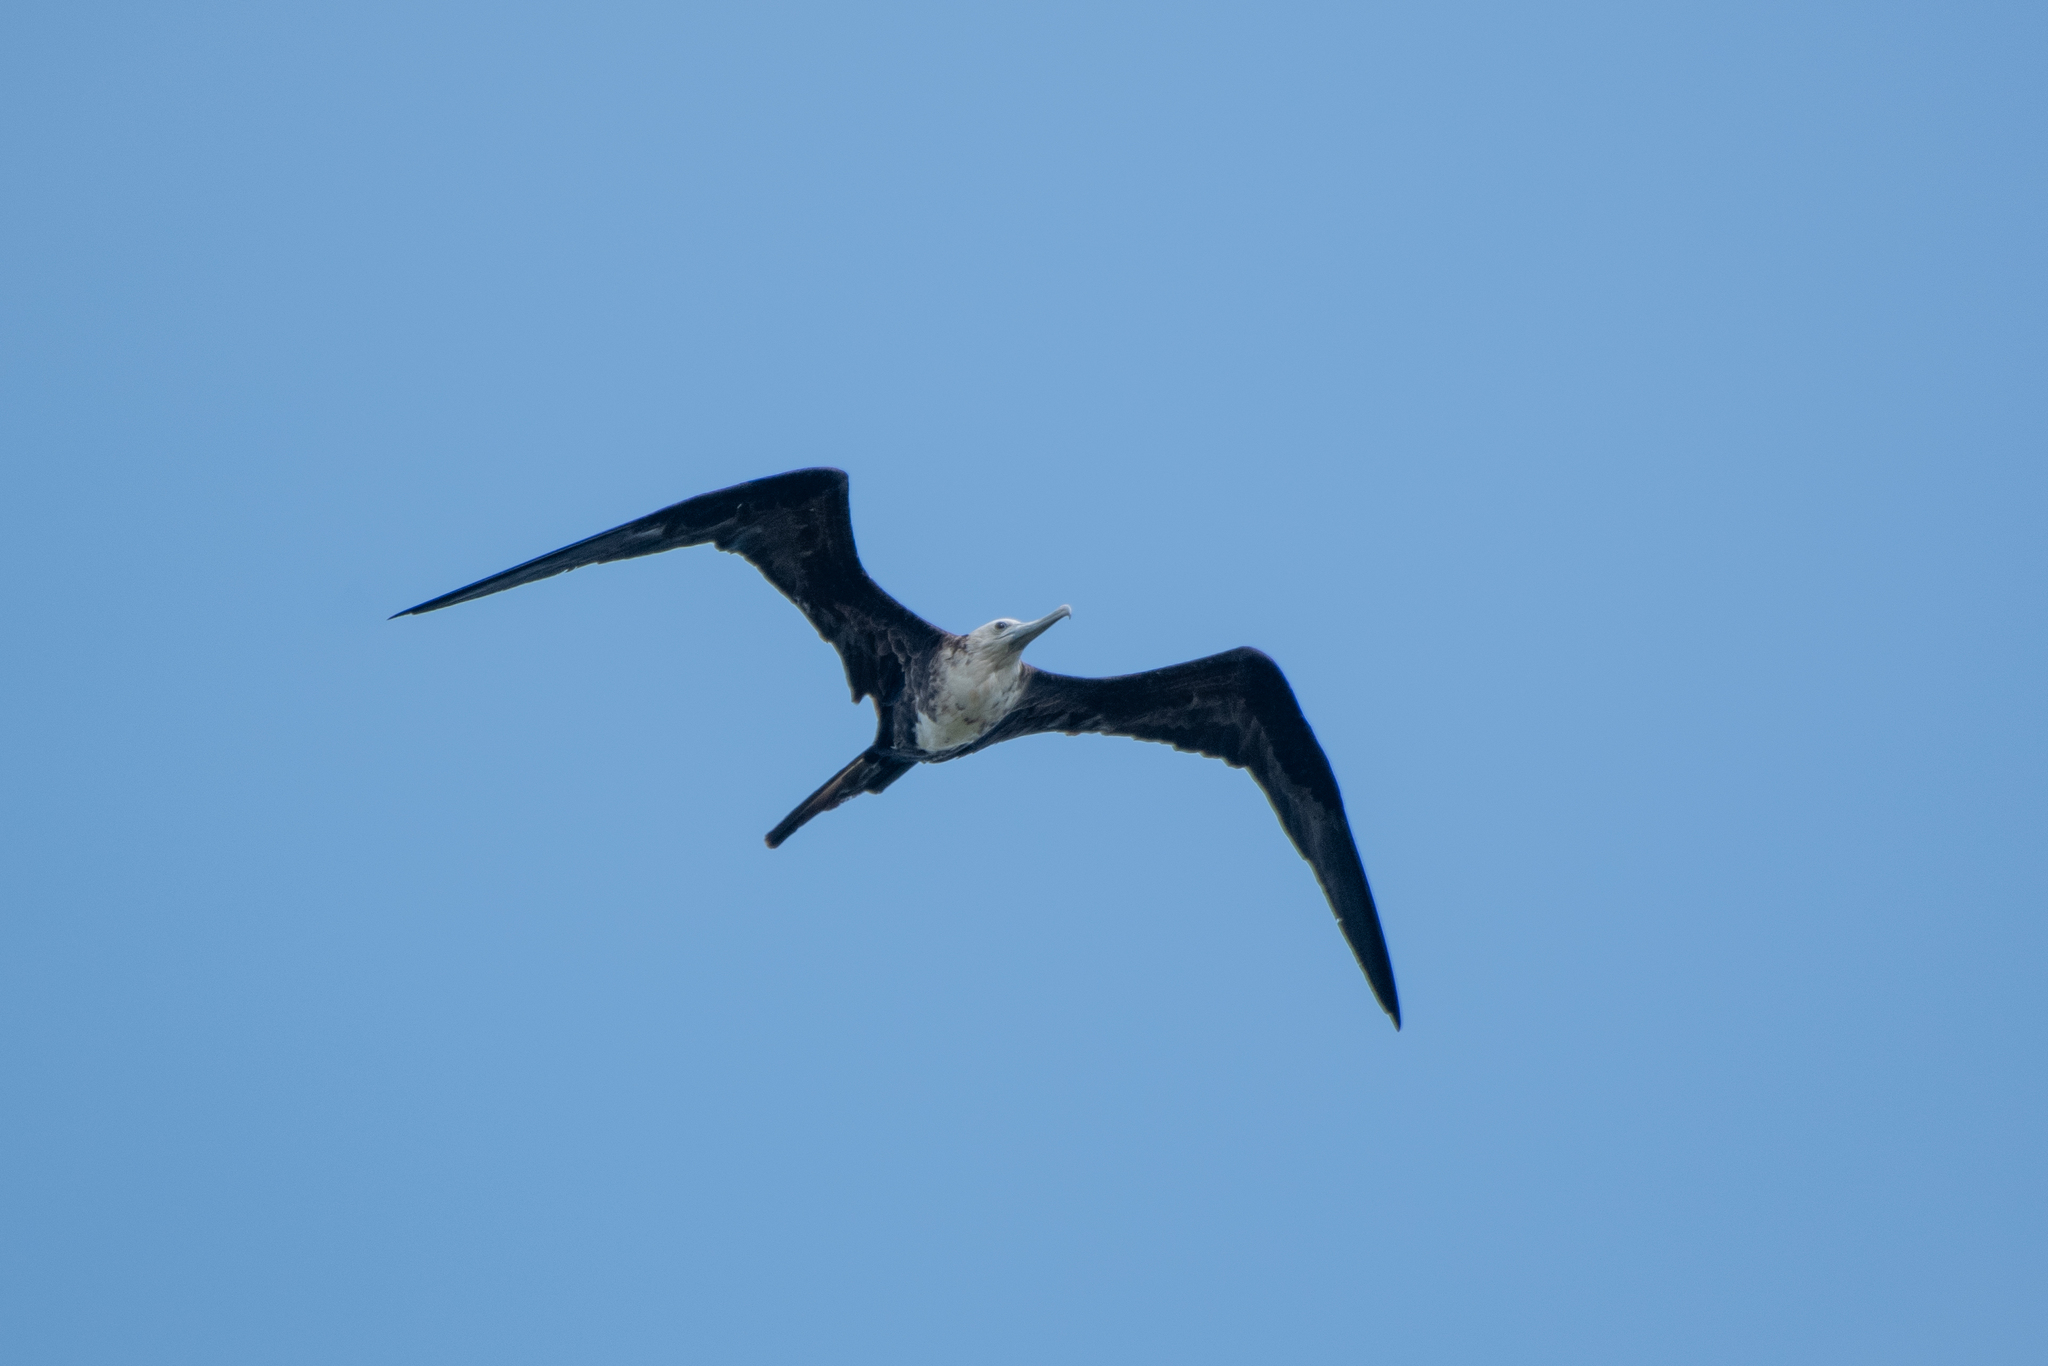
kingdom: Animalia
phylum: Chordata
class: Aves
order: Suliformes
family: Fregatidae
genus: Fregata
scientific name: Fregata magnificens
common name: Magnificent frigatebird
